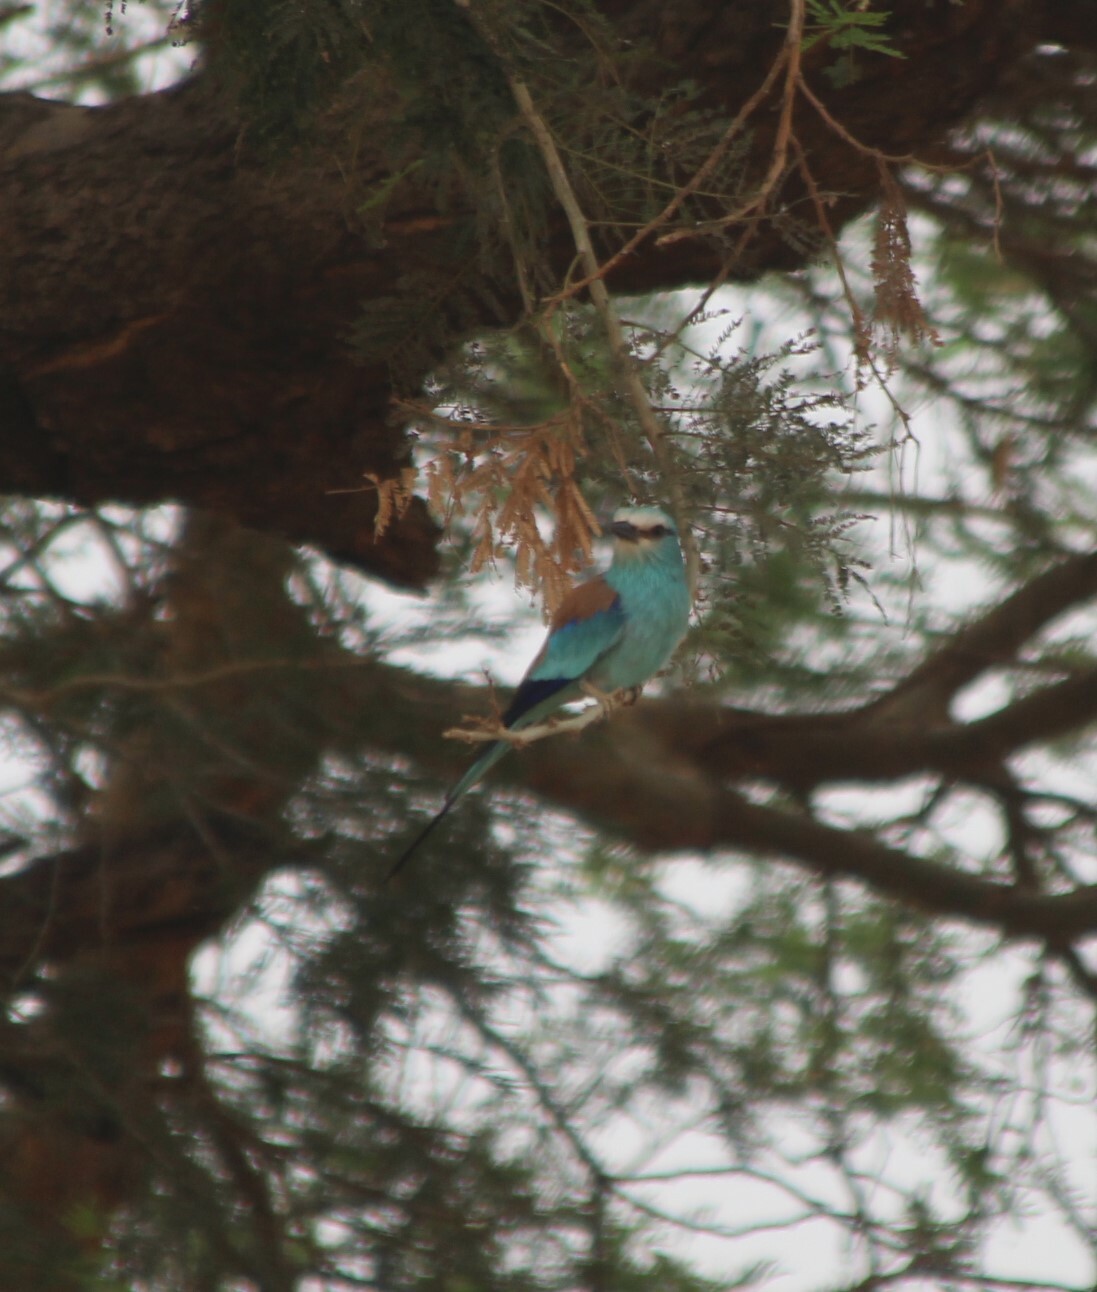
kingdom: Animalia
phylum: Chordata
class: Aves
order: Coraciiformes
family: Coraciidae
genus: Coracias
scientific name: Coracias abyssinicus
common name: Abyssinian roller
